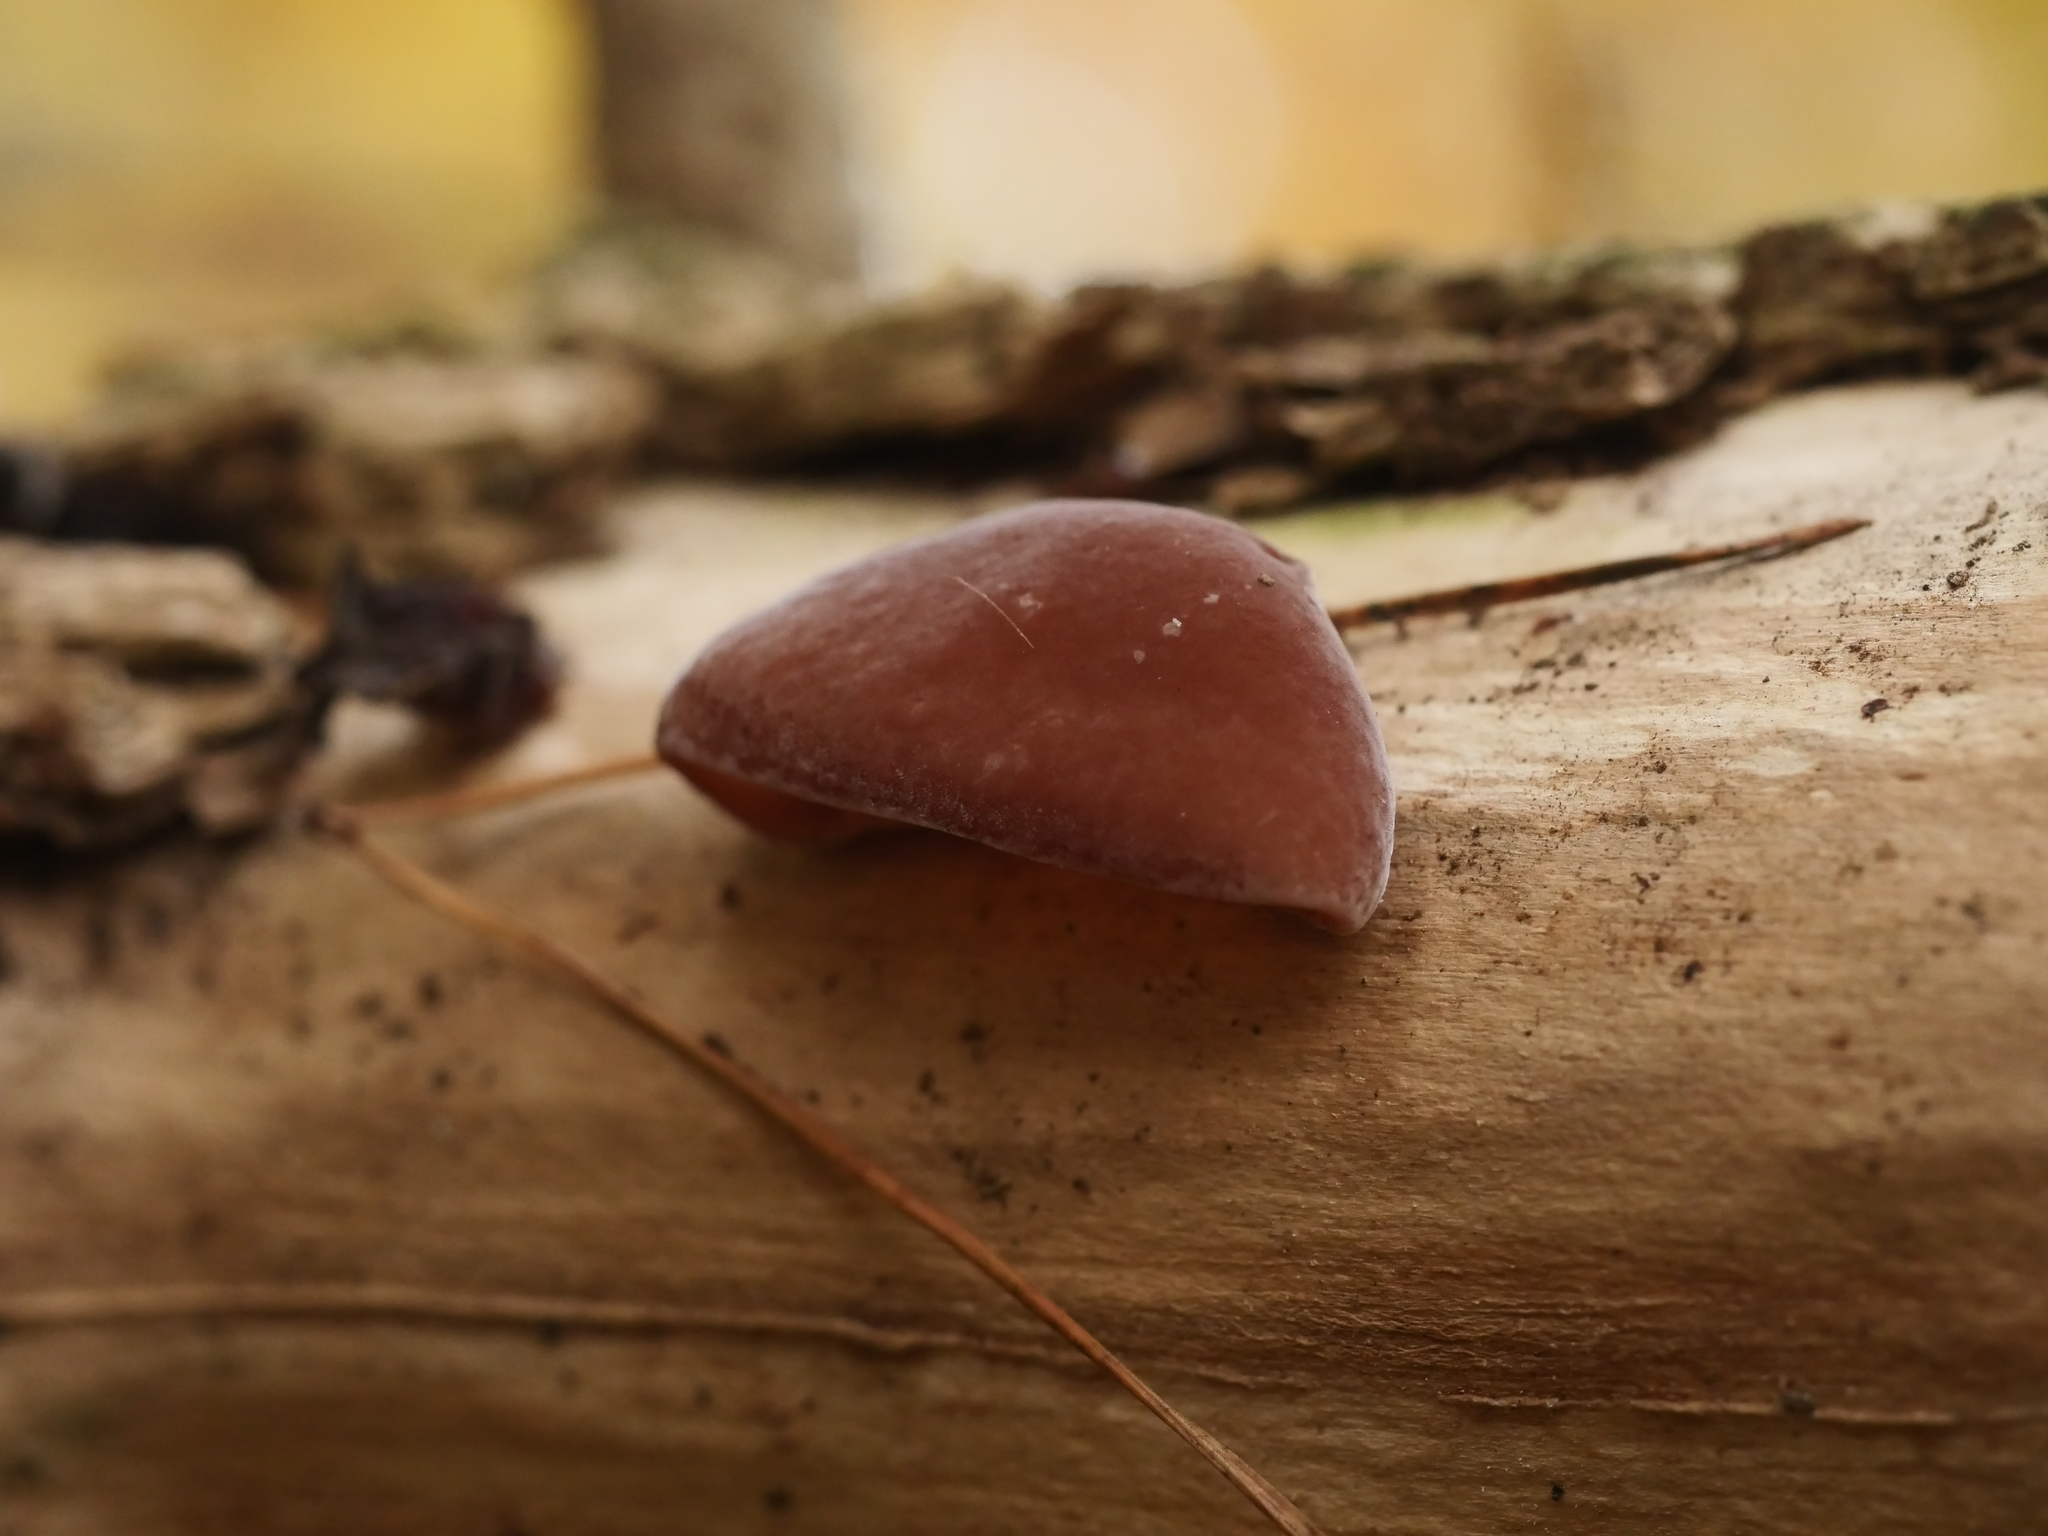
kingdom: Fungi
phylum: Basidiomycota
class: Agaricomycetes
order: Auriculariales
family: Auriculariaceae
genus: Auricularia
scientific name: Auricularia auricula-judae
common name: Jelly ear
